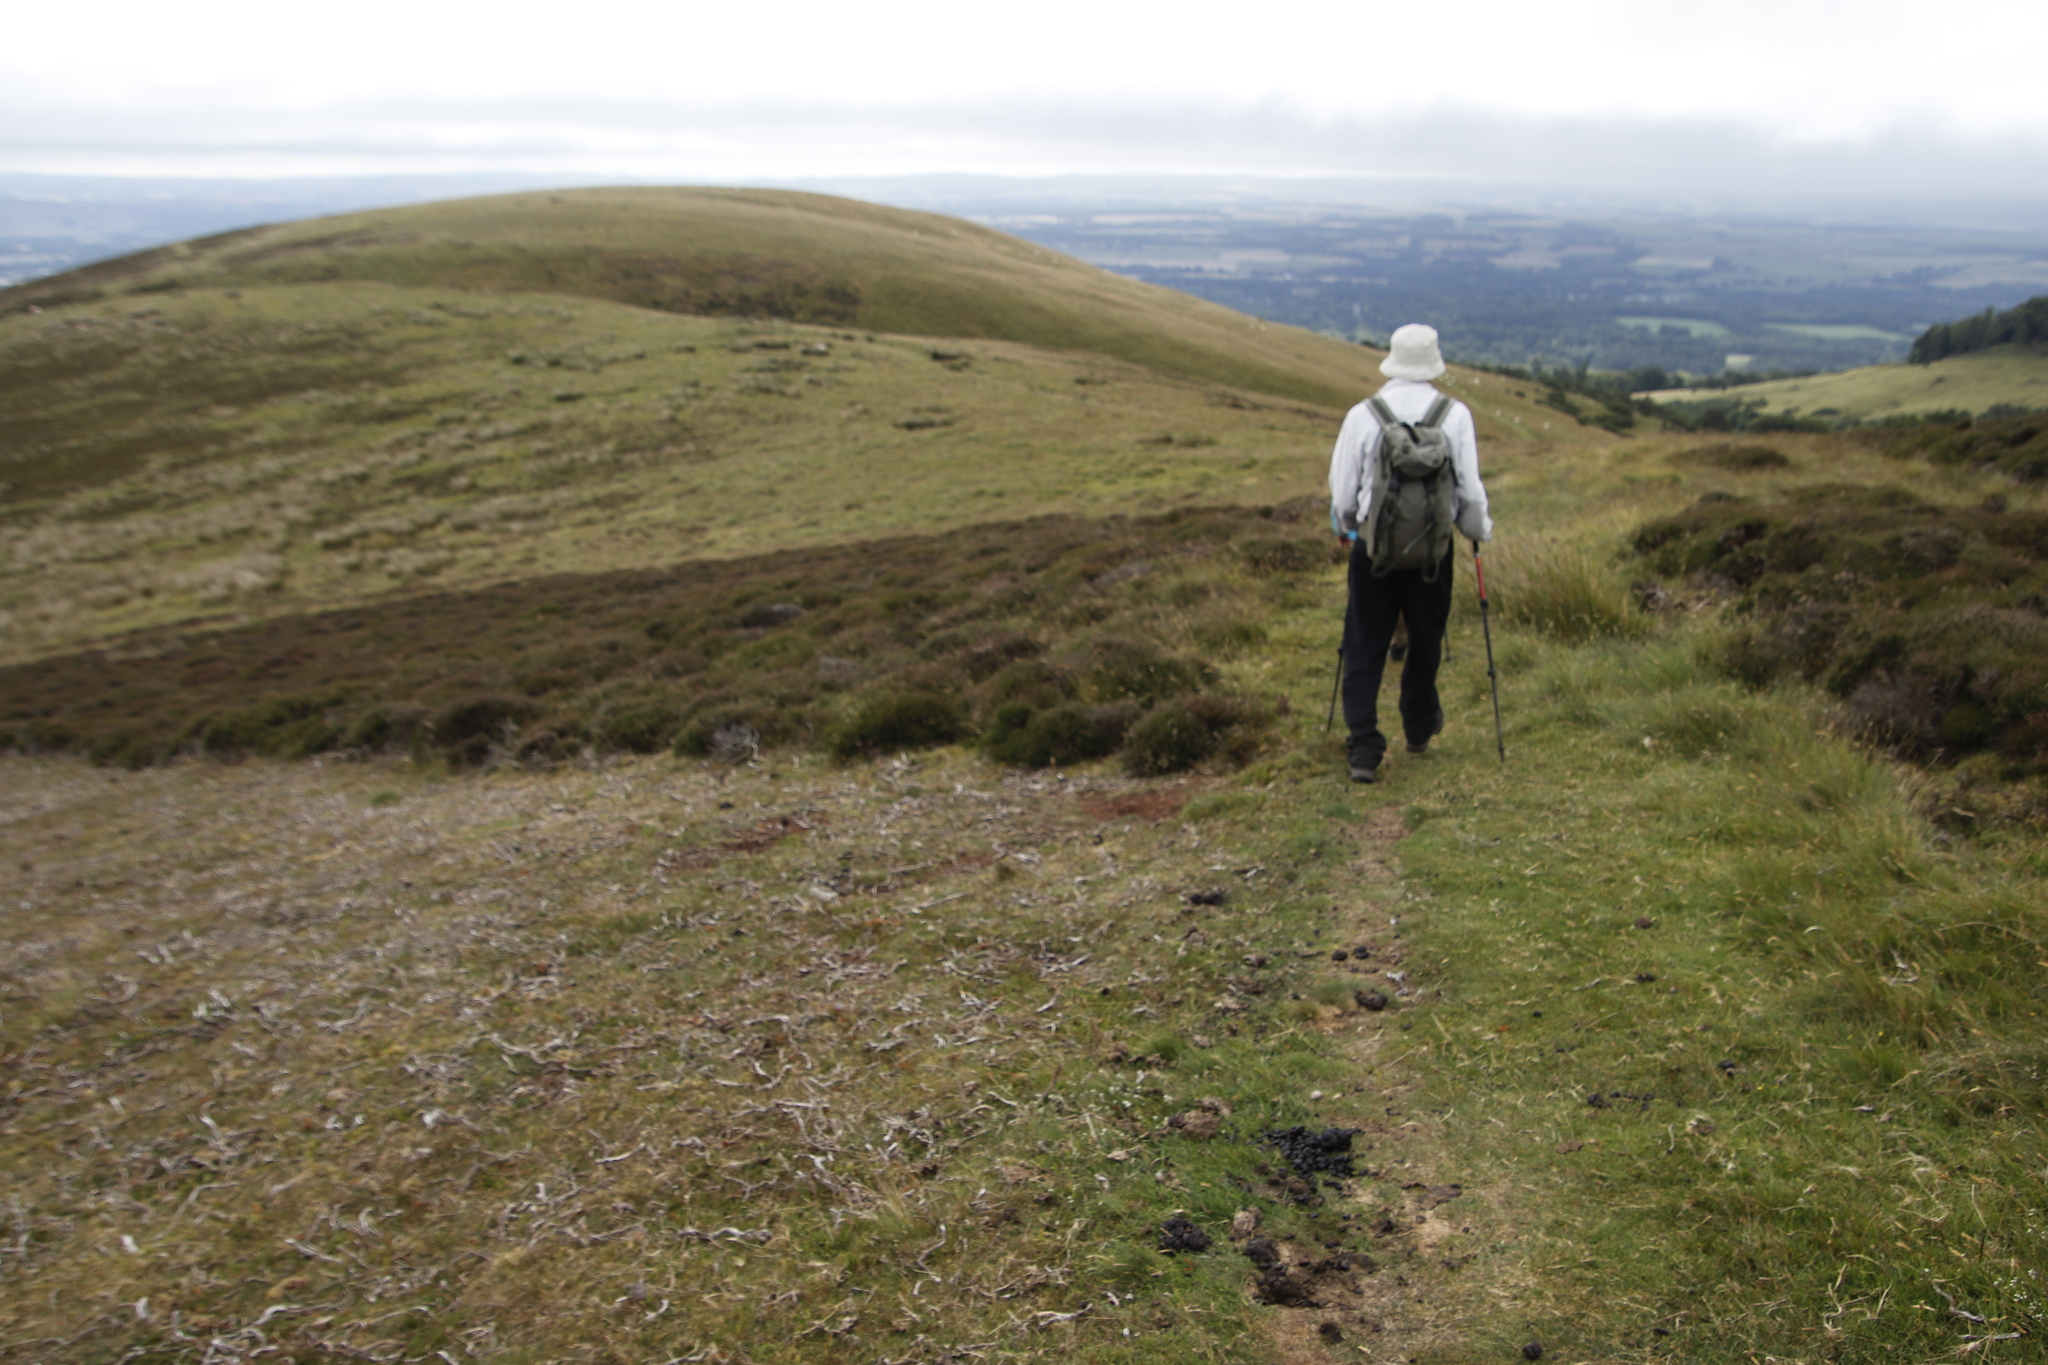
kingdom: Plantae
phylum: Tracheophyta
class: Magnoliopsida
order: Ericales
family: Ericaceae
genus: Calluna
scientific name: Calluna vulgaris
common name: Heather
